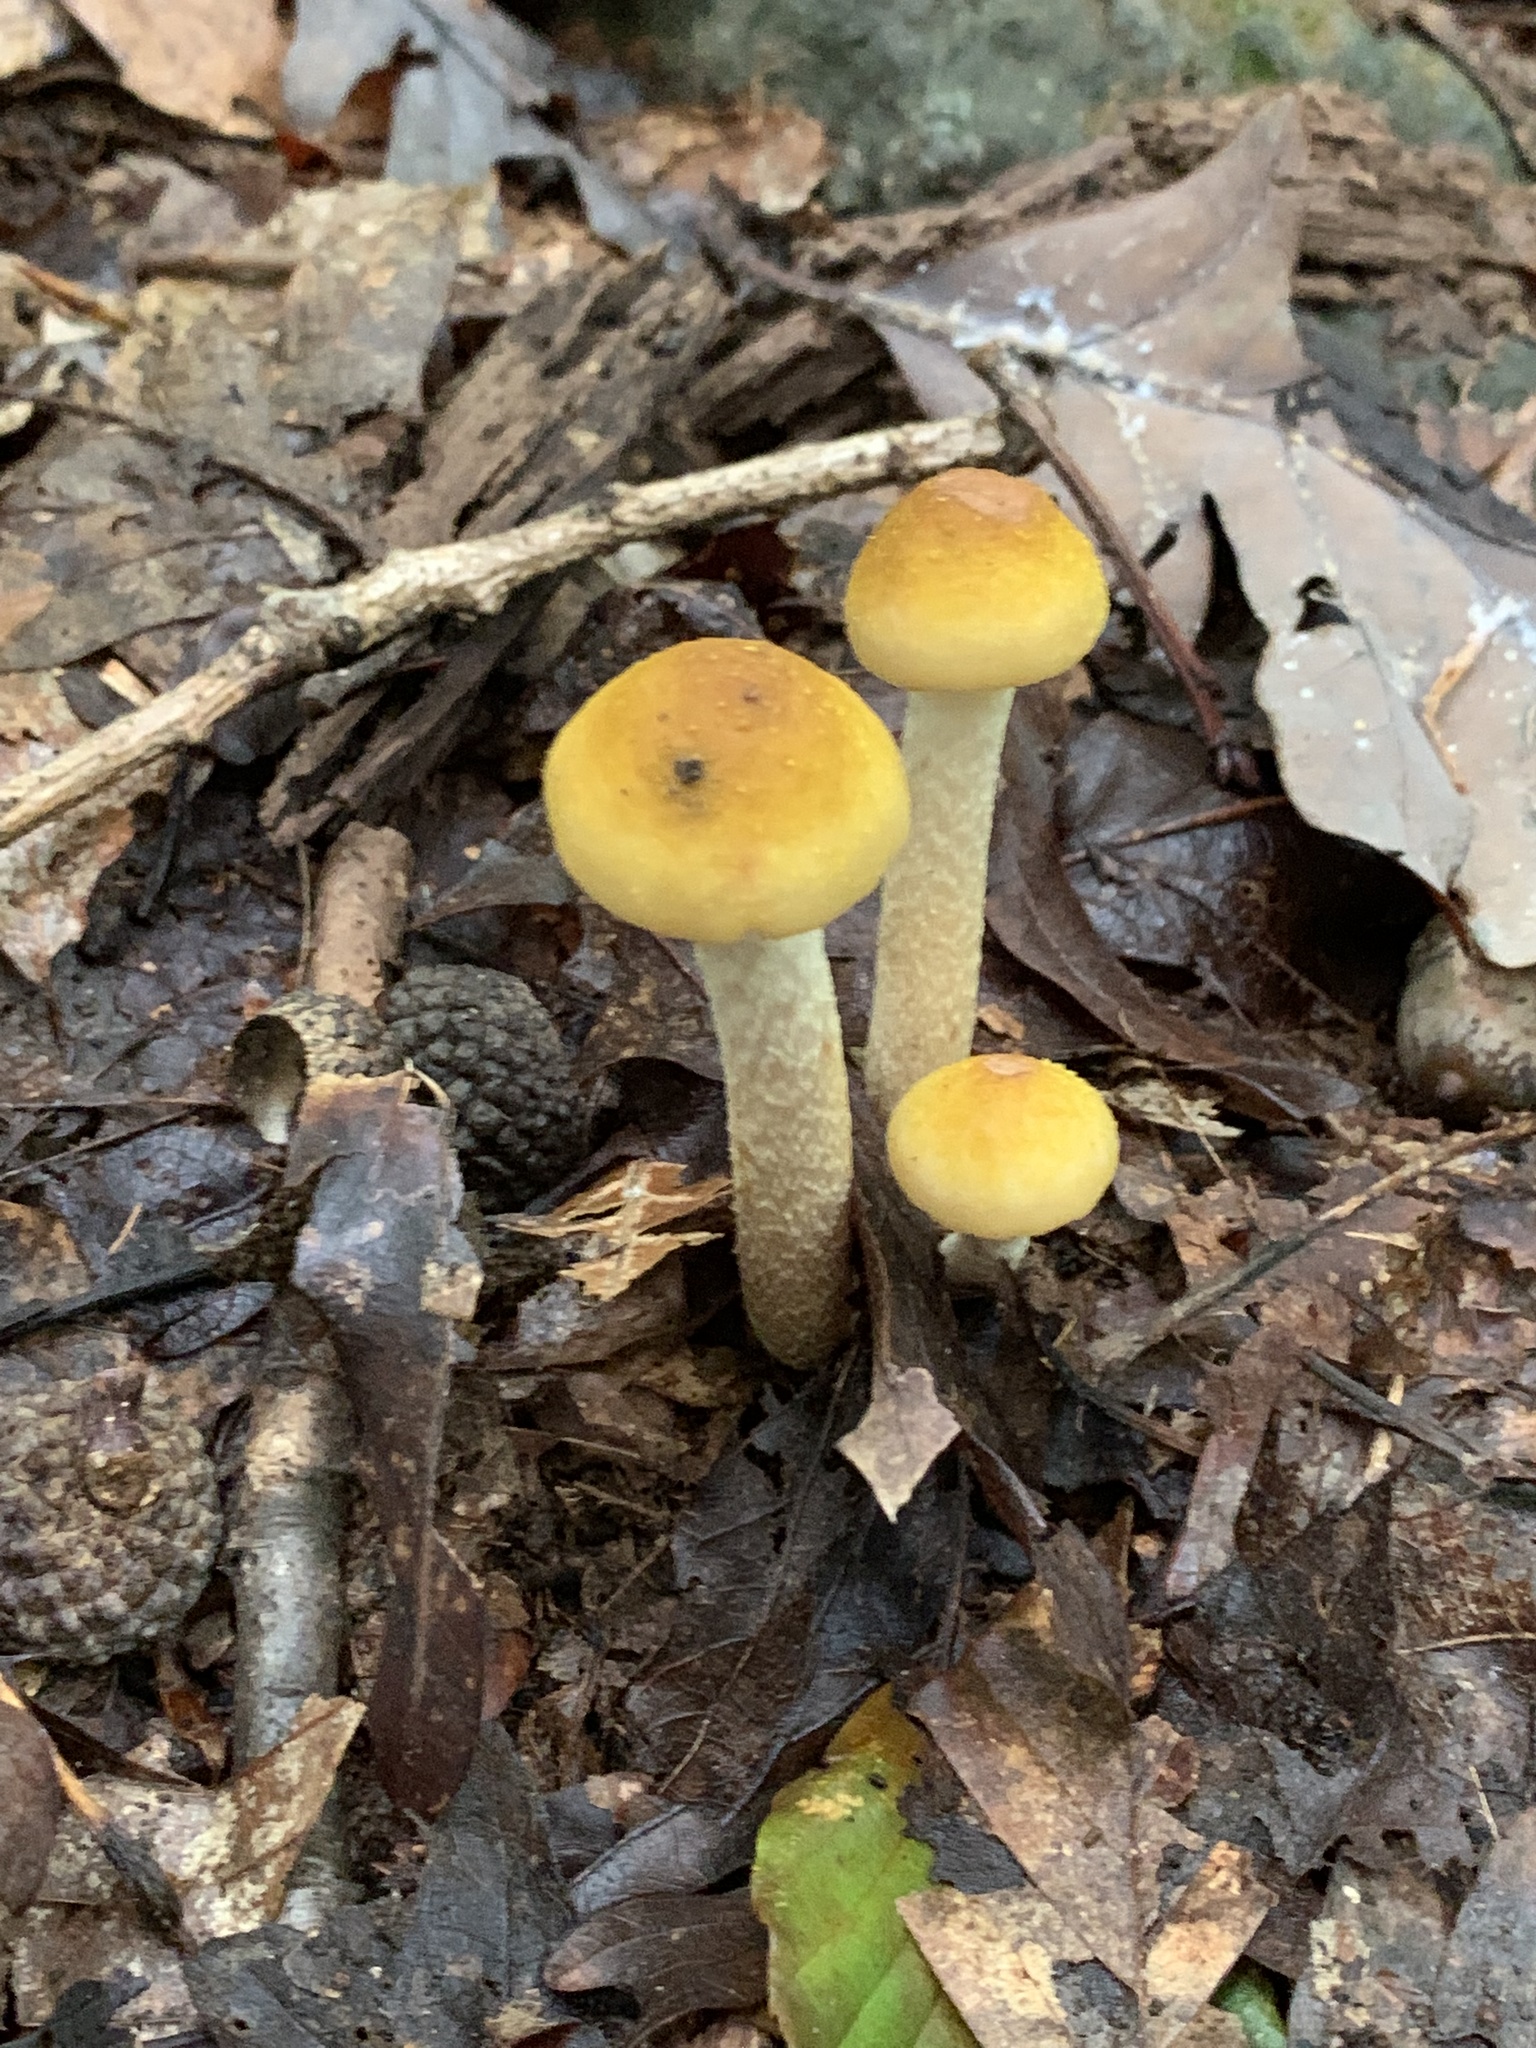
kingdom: Fungi
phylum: Basidiomycota
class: Agaricomycetes
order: Agaricales
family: Physalacriaceae
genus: Armillaria
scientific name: Armillaria mellea
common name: Honey fungus
